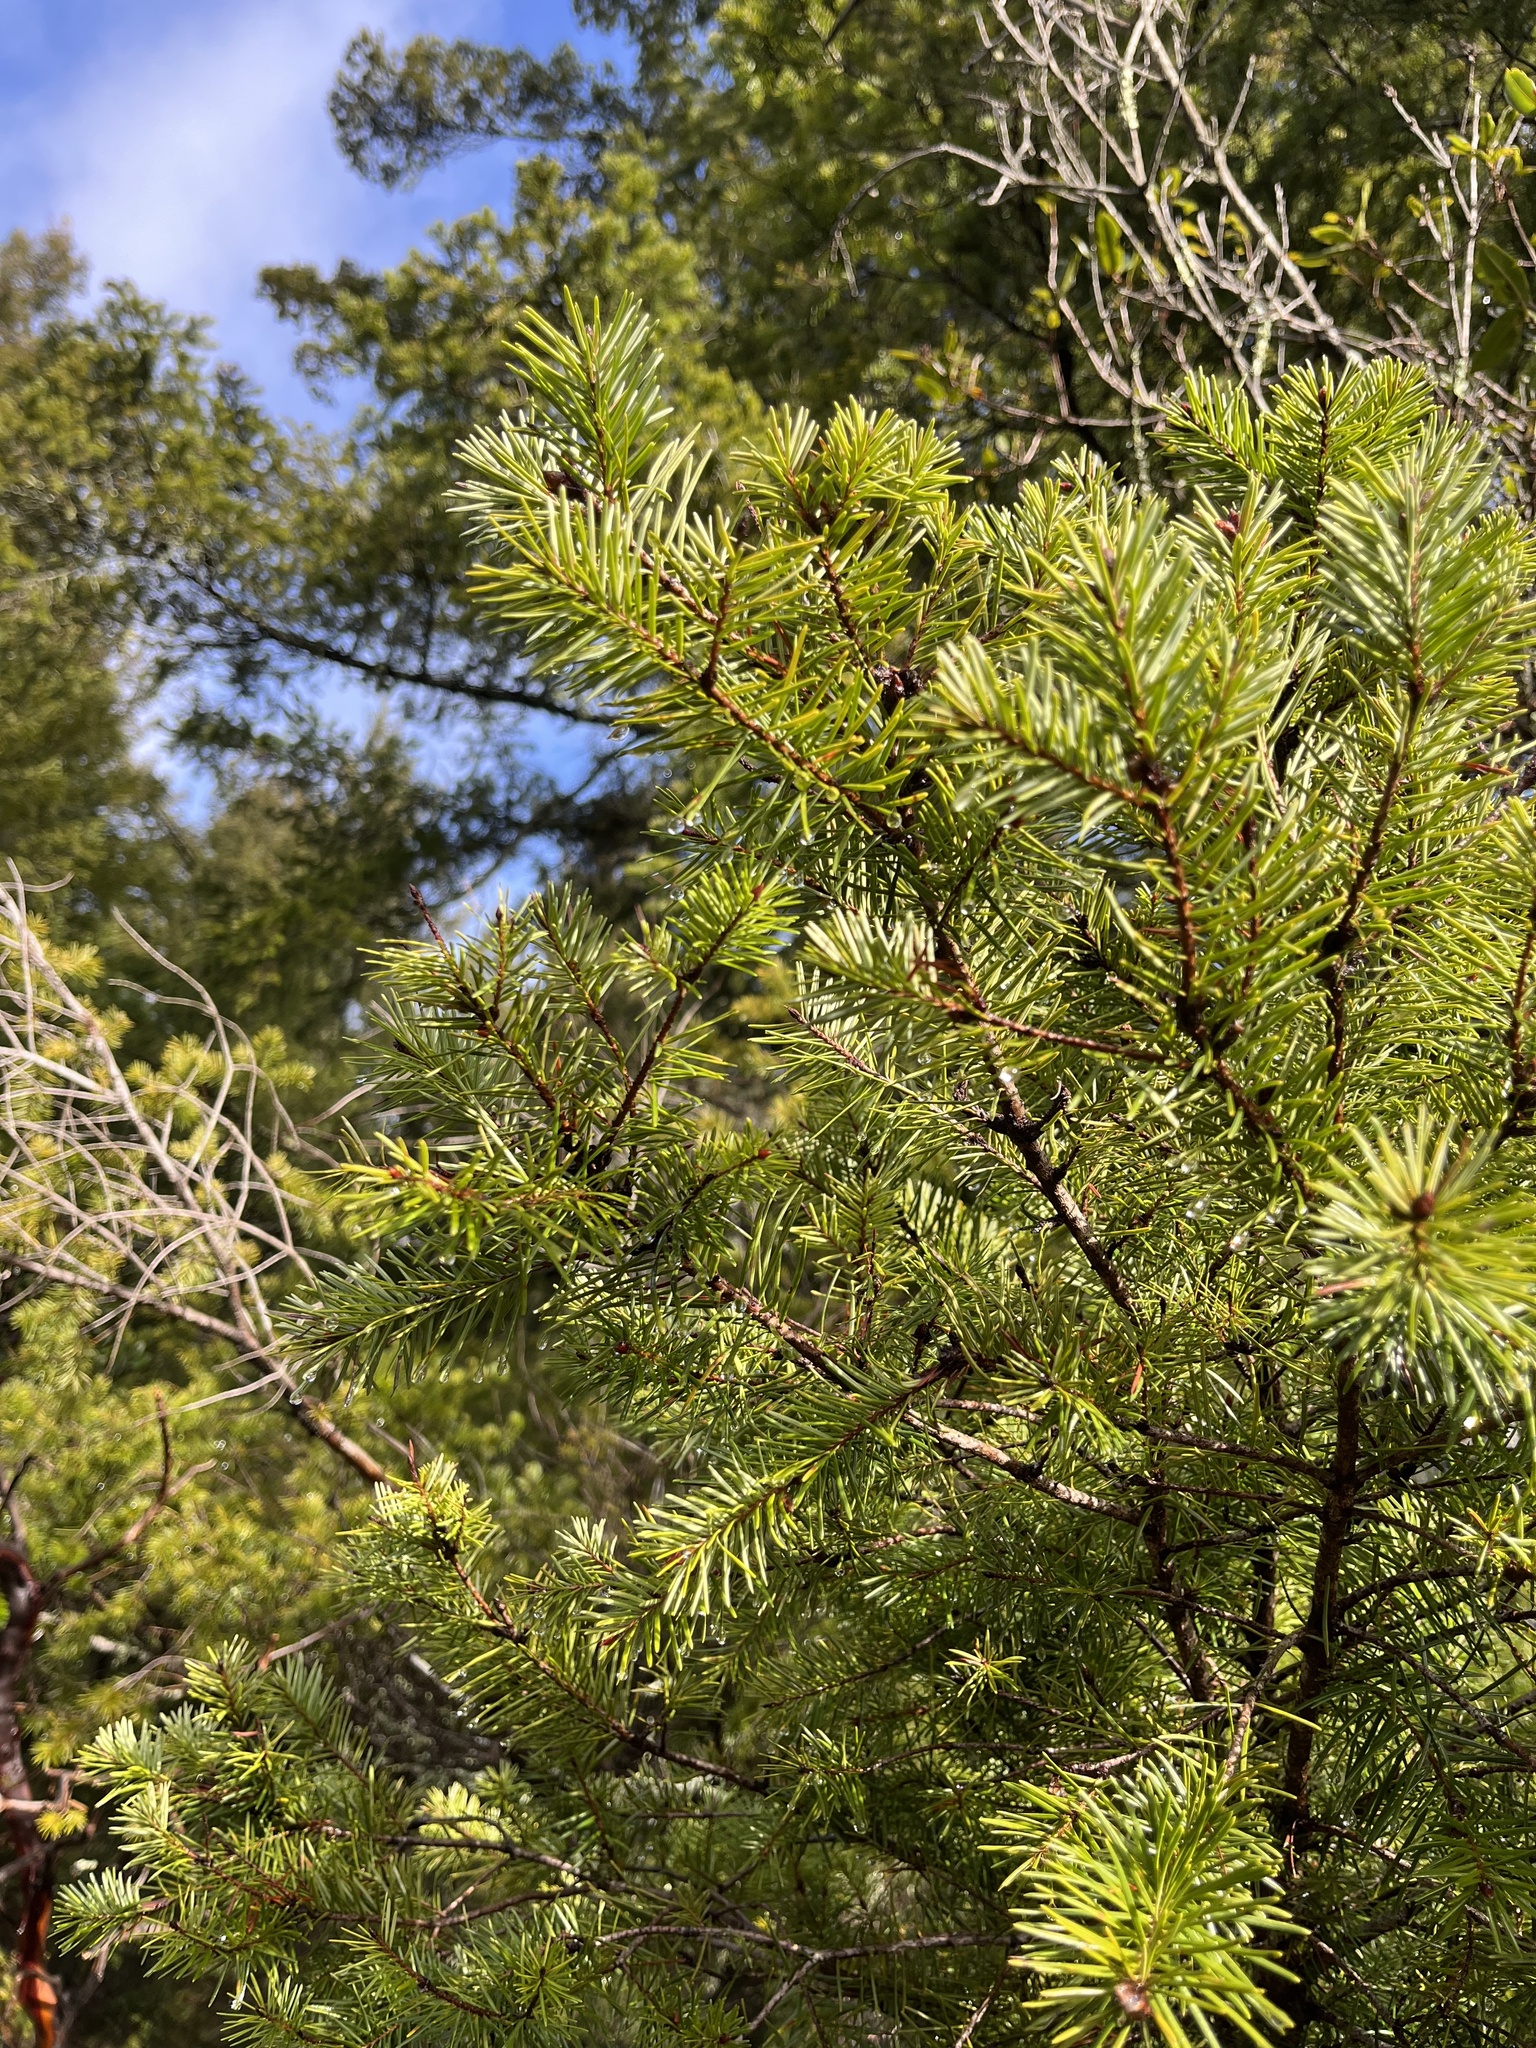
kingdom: Plantae
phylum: Tracheophyta
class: Pinopsida
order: Pinales
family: Pinaceae
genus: Pseudotsuga
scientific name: Pseudotsuga menziesii
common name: Douglas fir
